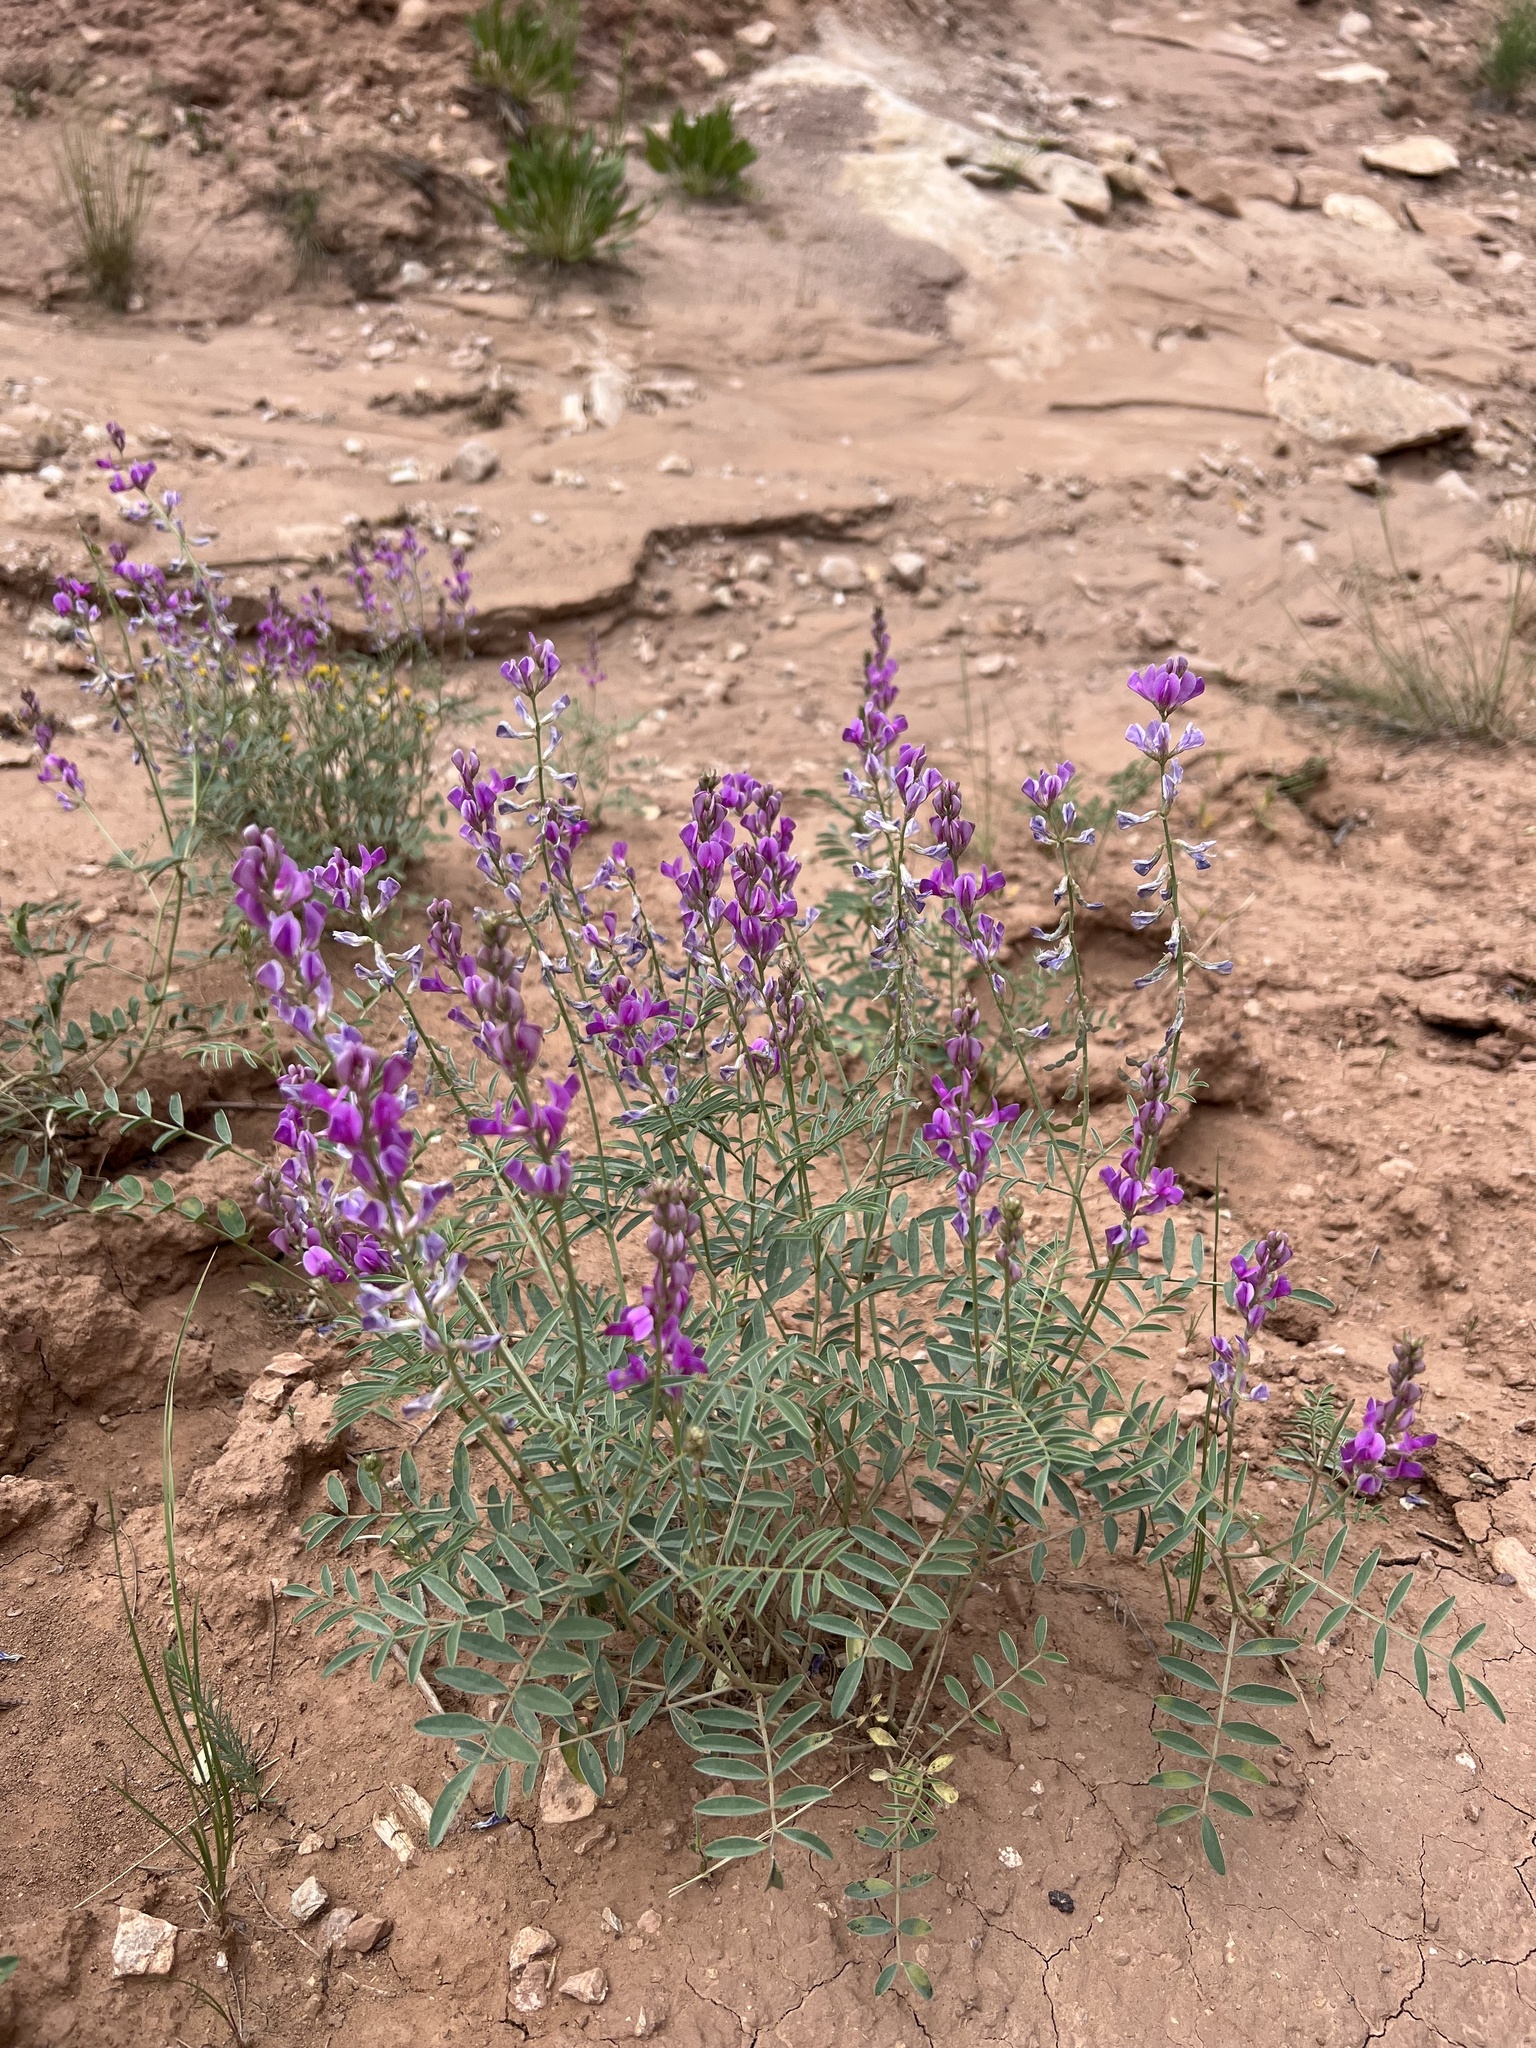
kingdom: Plantae
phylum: Tracheophyta
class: Magnoliopsida
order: Fabales
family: Fabaceae
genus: Hedysarum
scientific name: Hedysarum boreale
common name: Northern sweet-vetch
